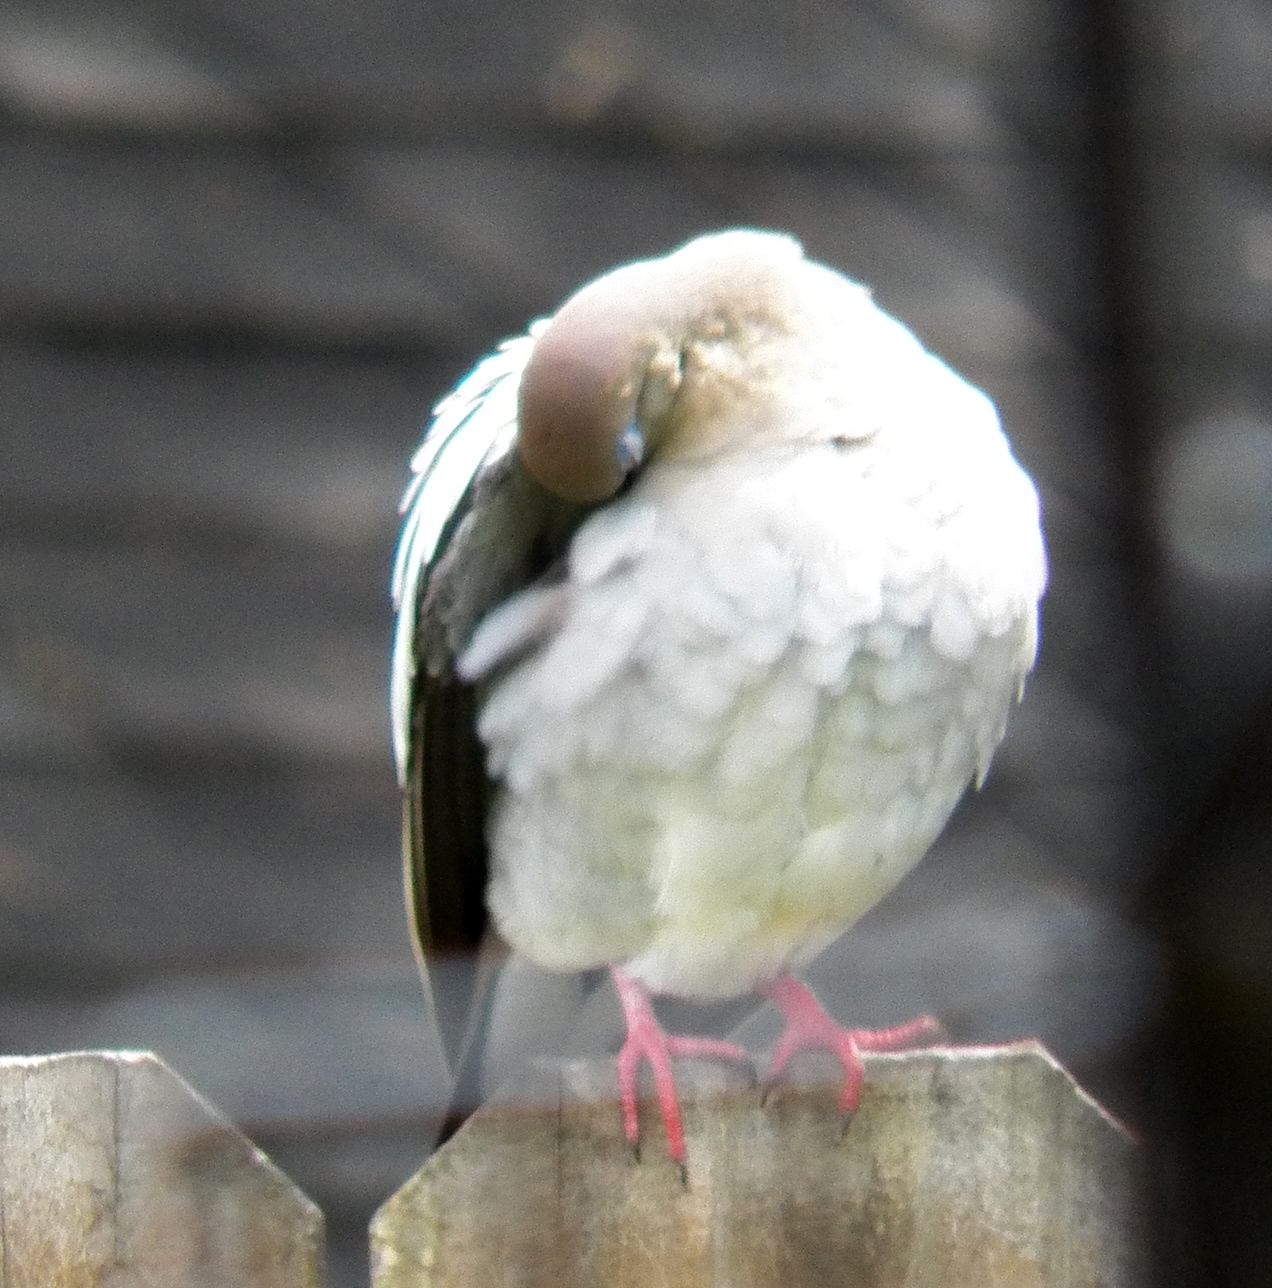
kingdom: Animalia
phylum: Chordata
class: Aves
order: Columbiformes
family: Columbidae
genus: Zenaida
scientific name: Zenaida asiatica
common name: White-winged dove
